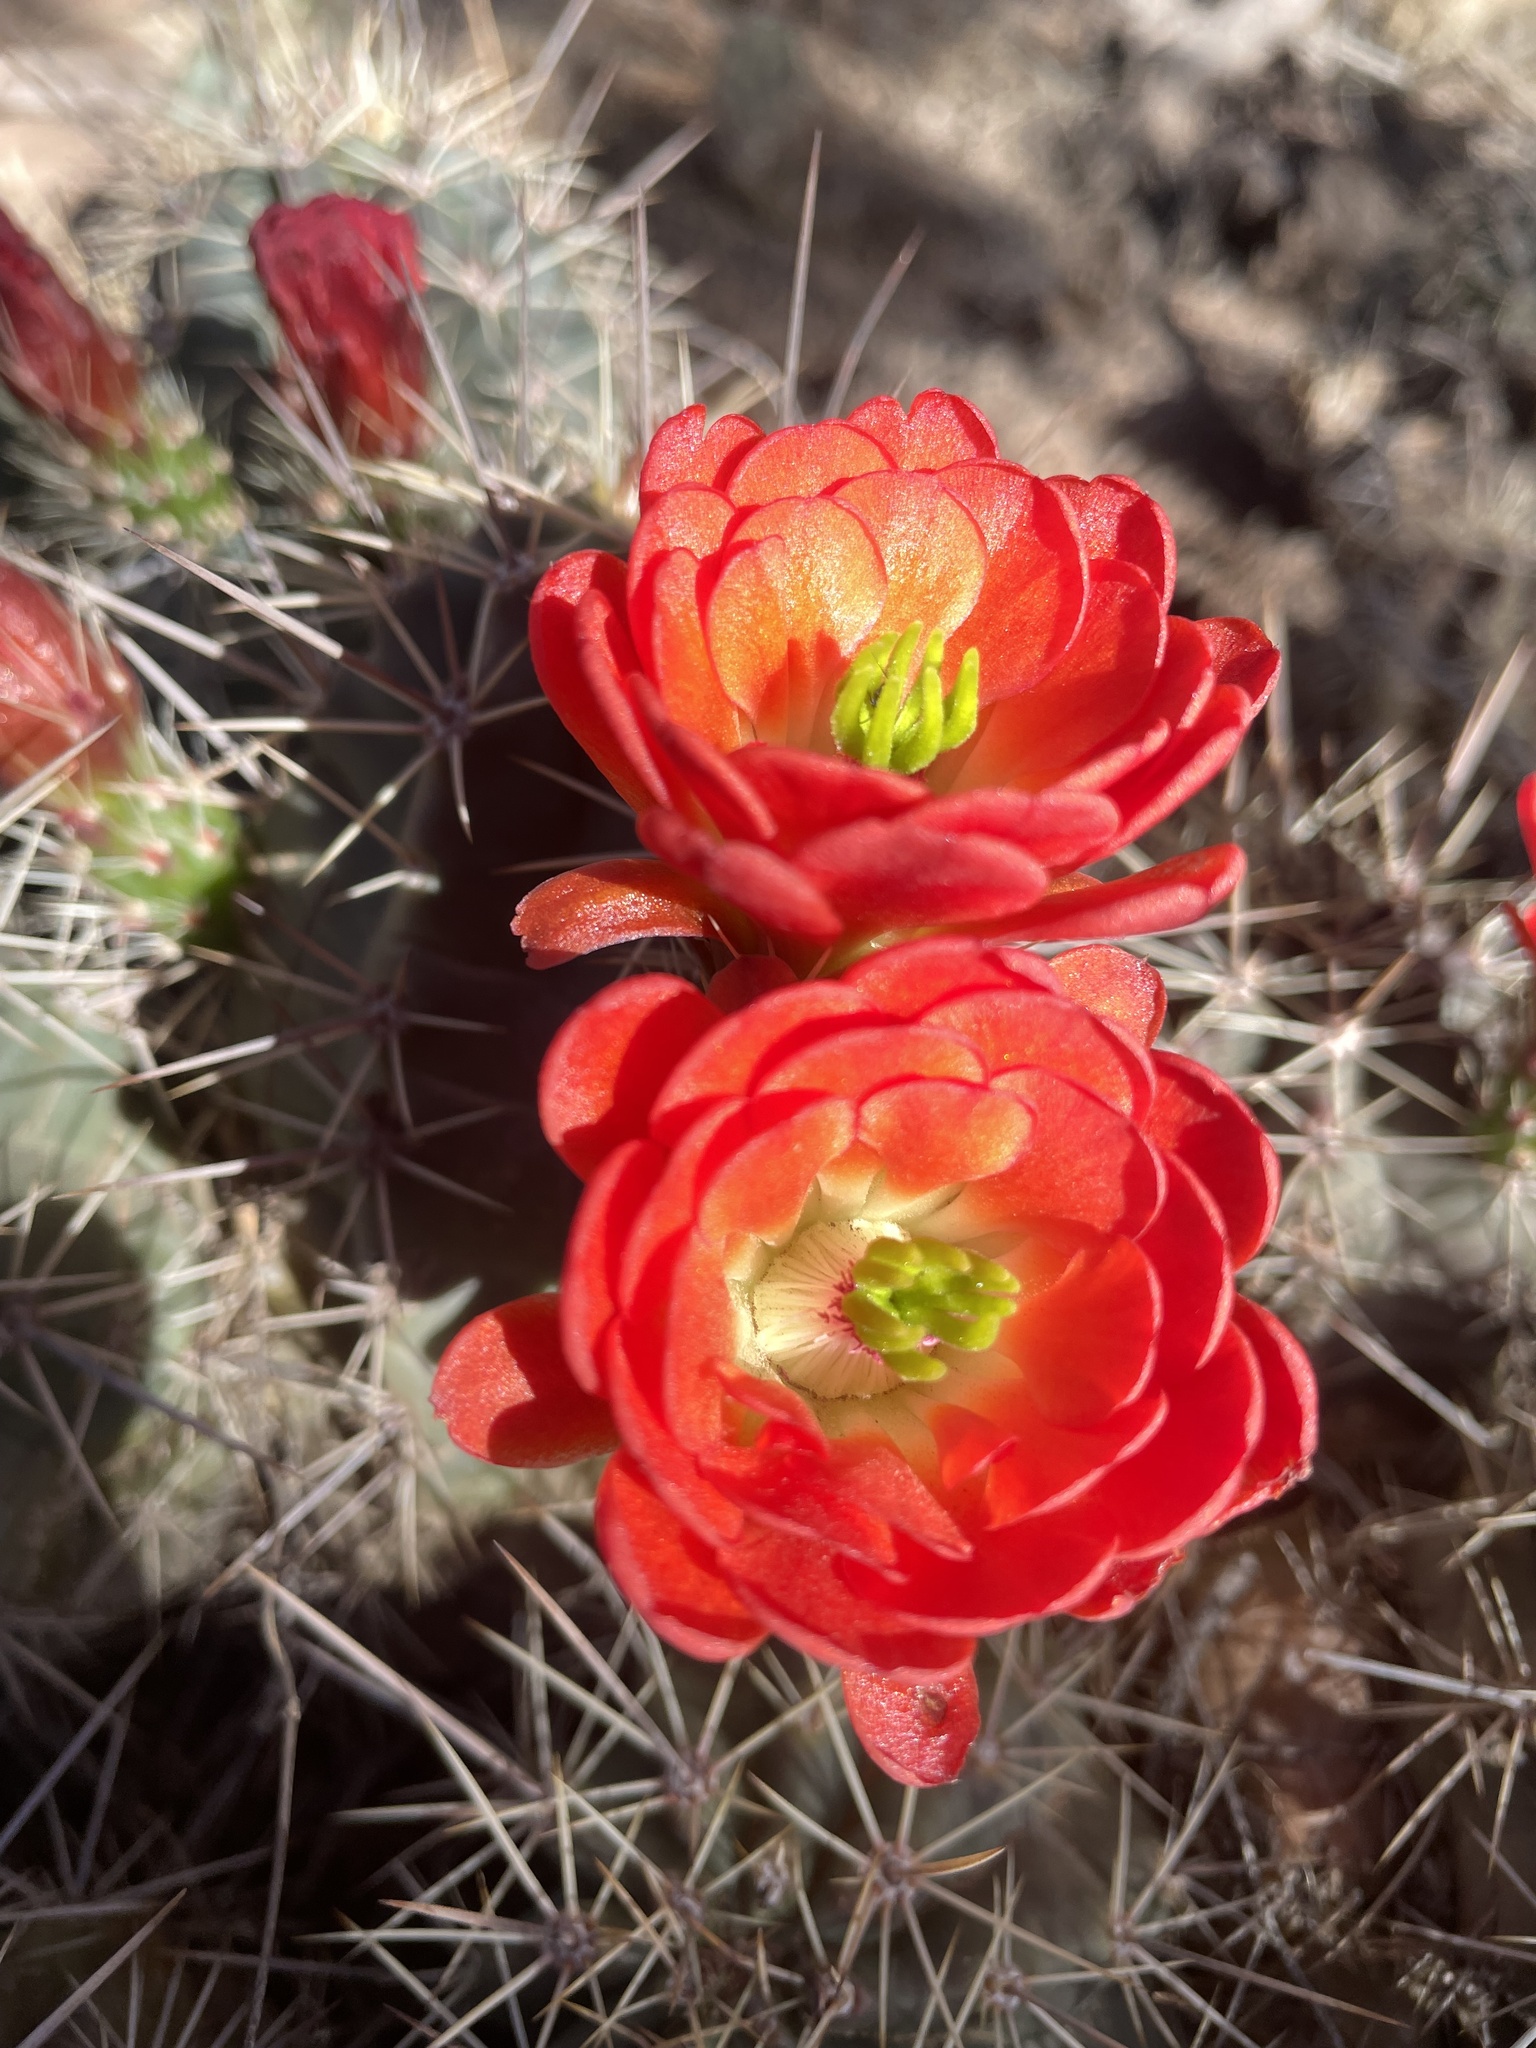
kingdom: Plantae
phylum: Tracheophyta
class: Magnoliopsida
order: Caryophyllales
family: Cactaceae
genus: Echinocereus
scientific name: Echinocereus coccineus
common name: Scarlet hedgehog cactus
